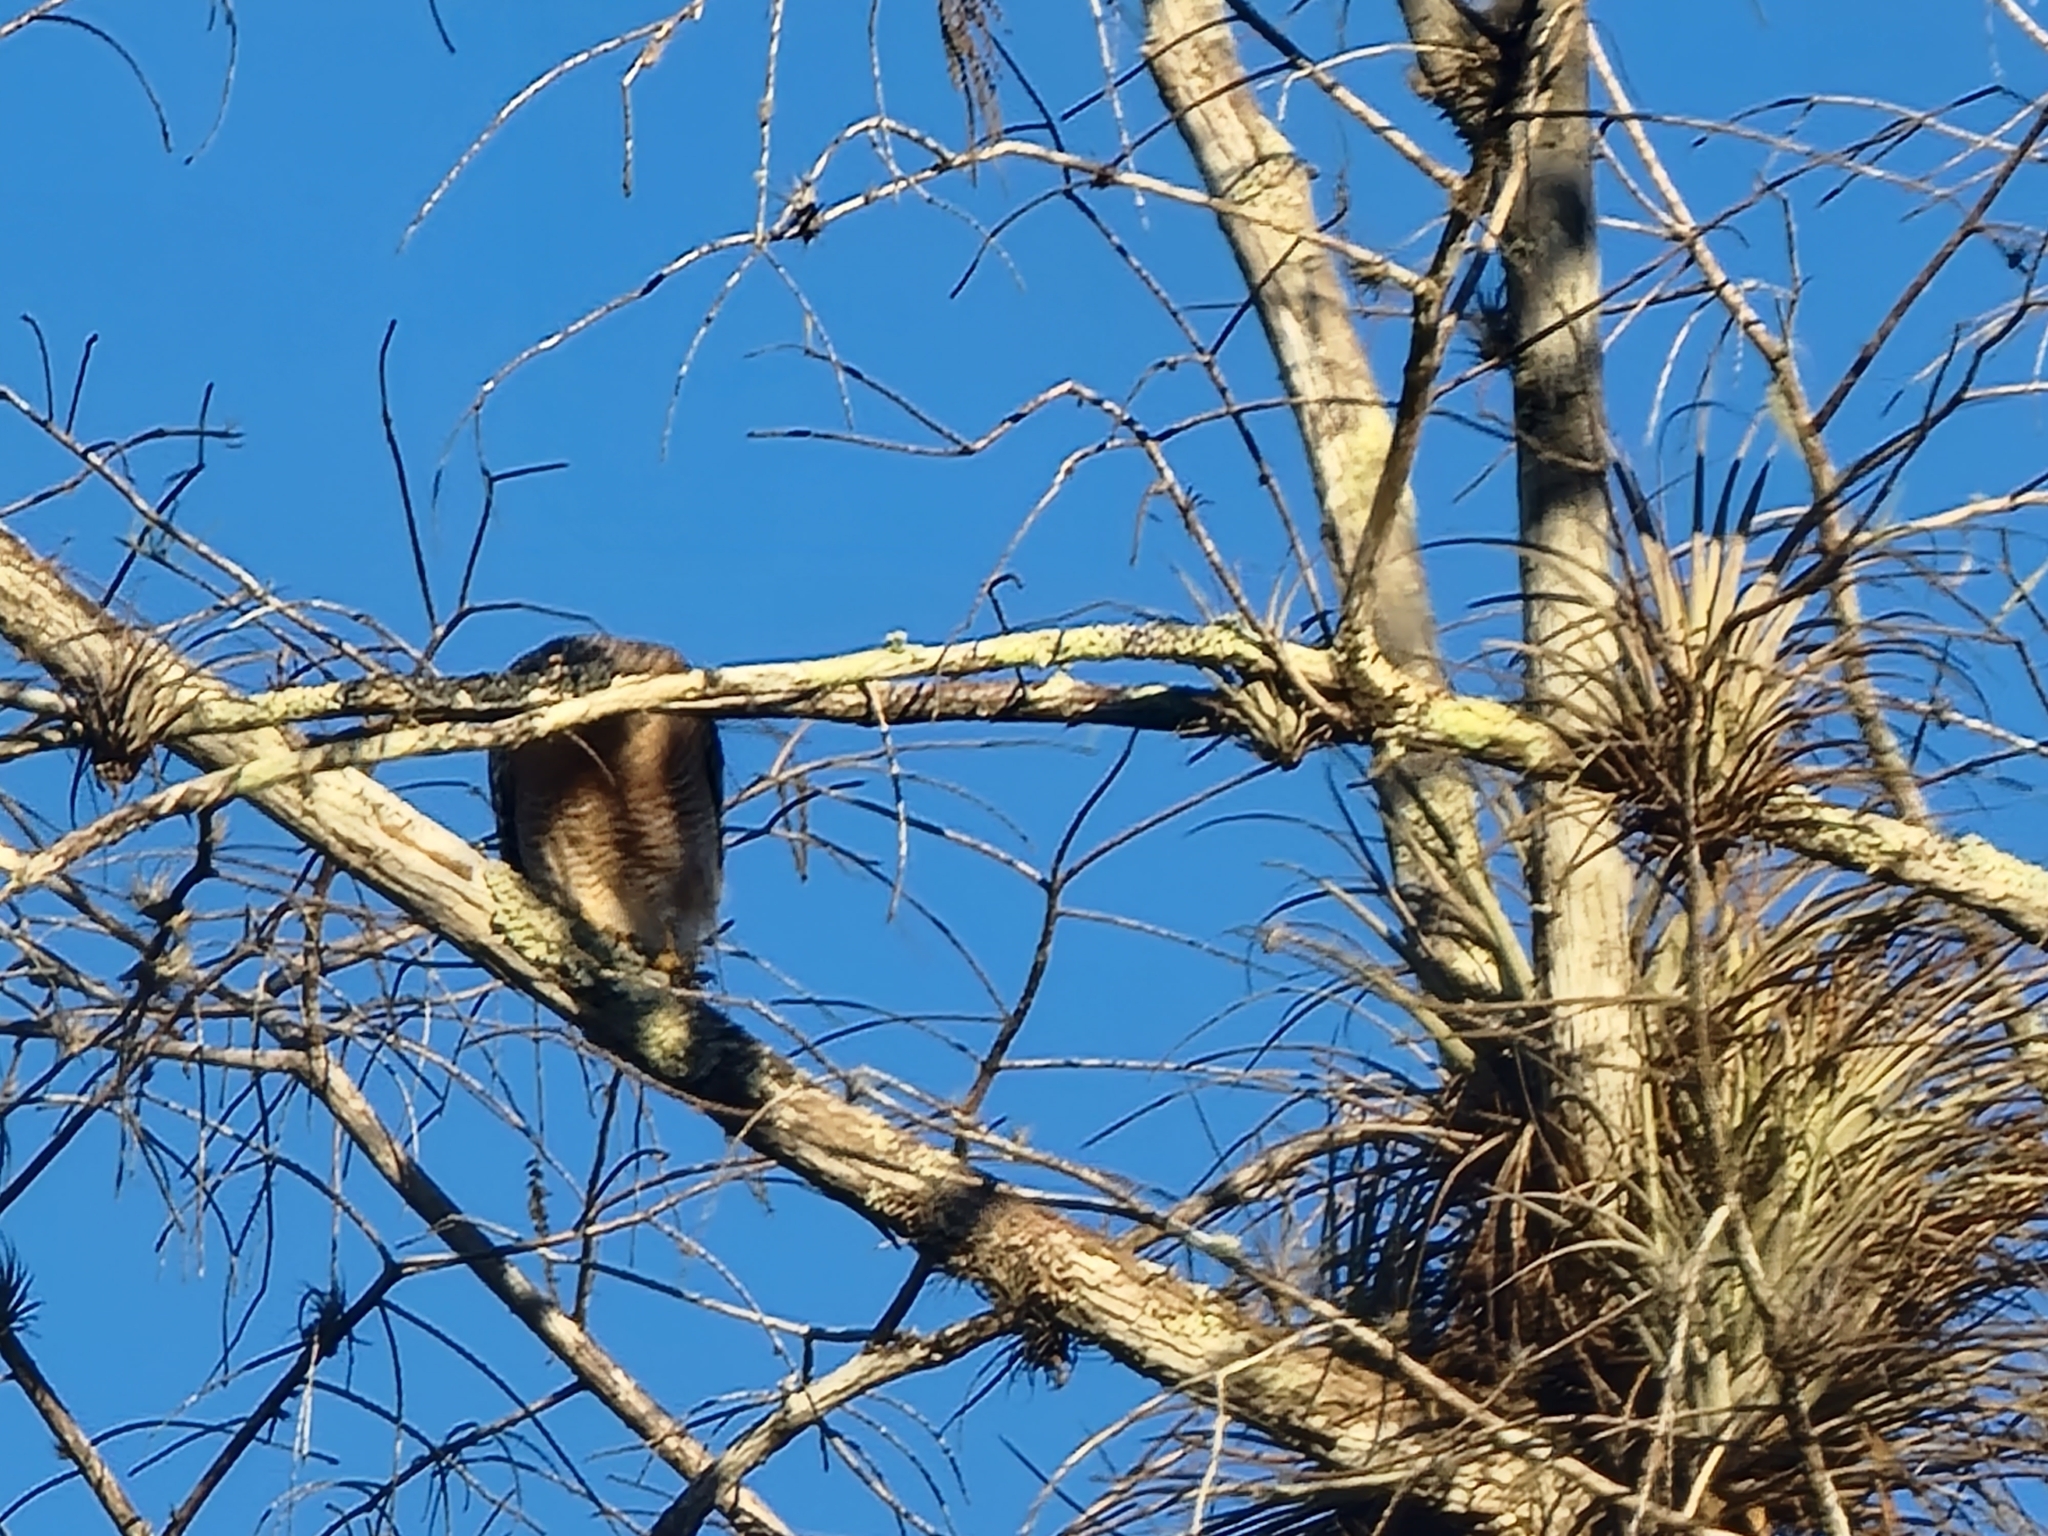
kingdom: Animalia
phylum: Chordata
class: Aves
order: Accipitriformes
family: Accipitridae
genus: Buteo
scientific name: Buteo lineatus
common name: Red-shouldered hawk
